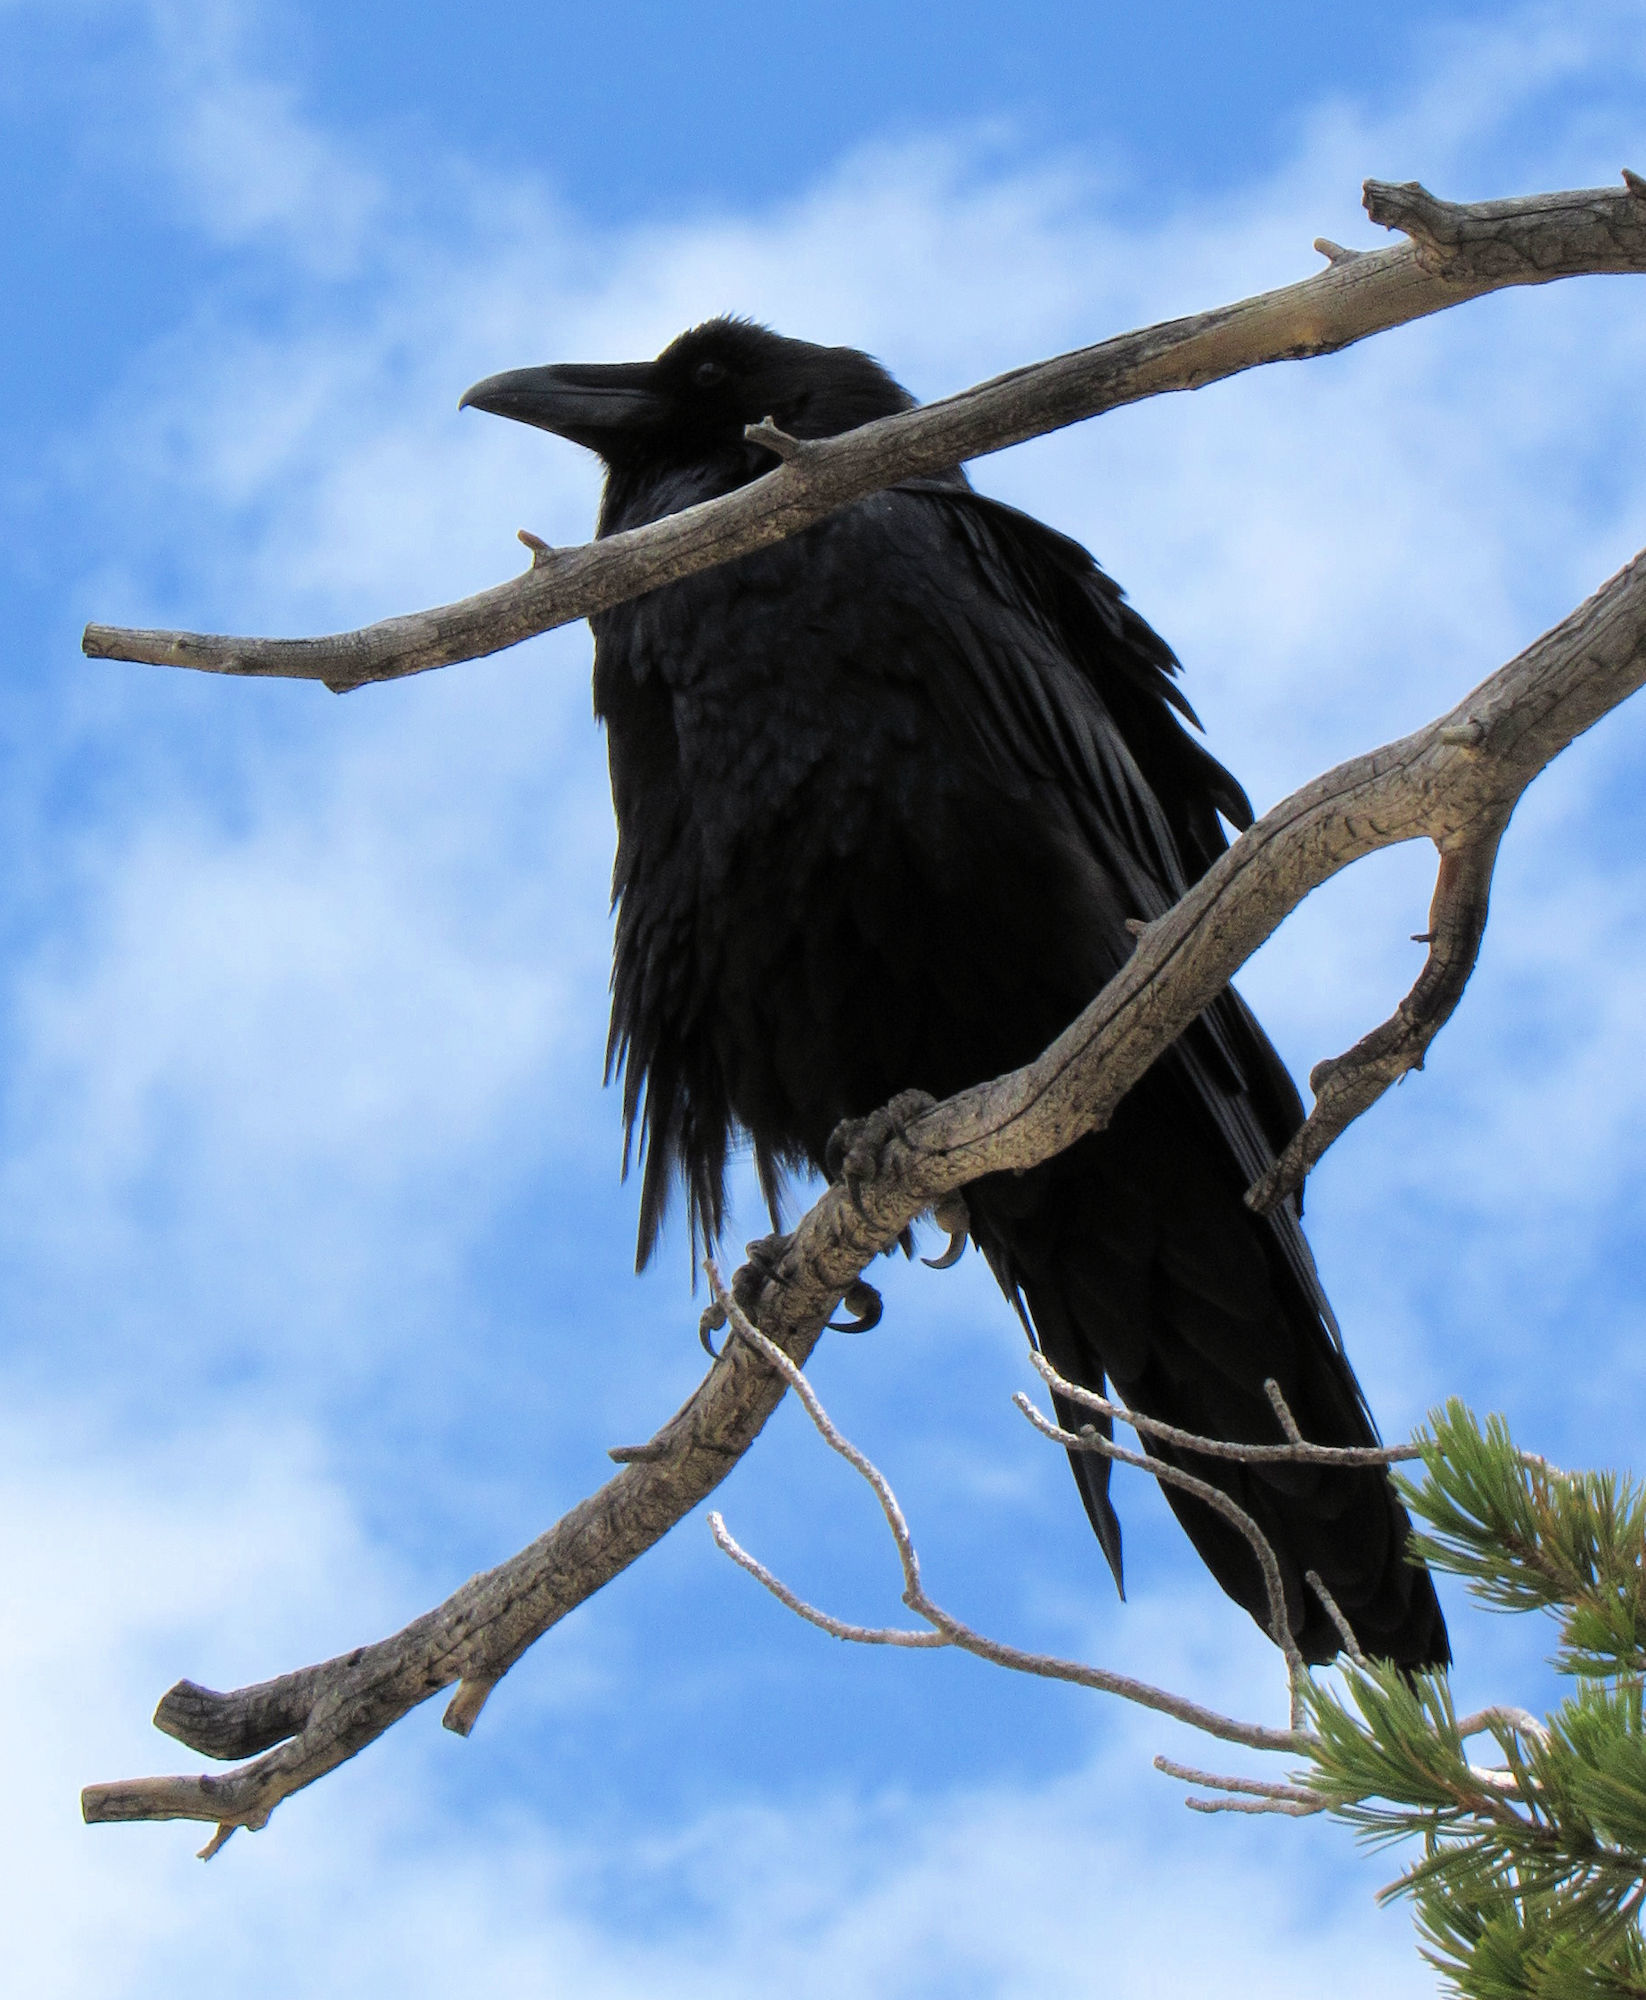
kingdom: Animalia
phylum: Chordata
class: Aves
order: Passeriformes
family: Corvidae
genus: Corvus
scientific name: Corvus corax
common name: Common raven
